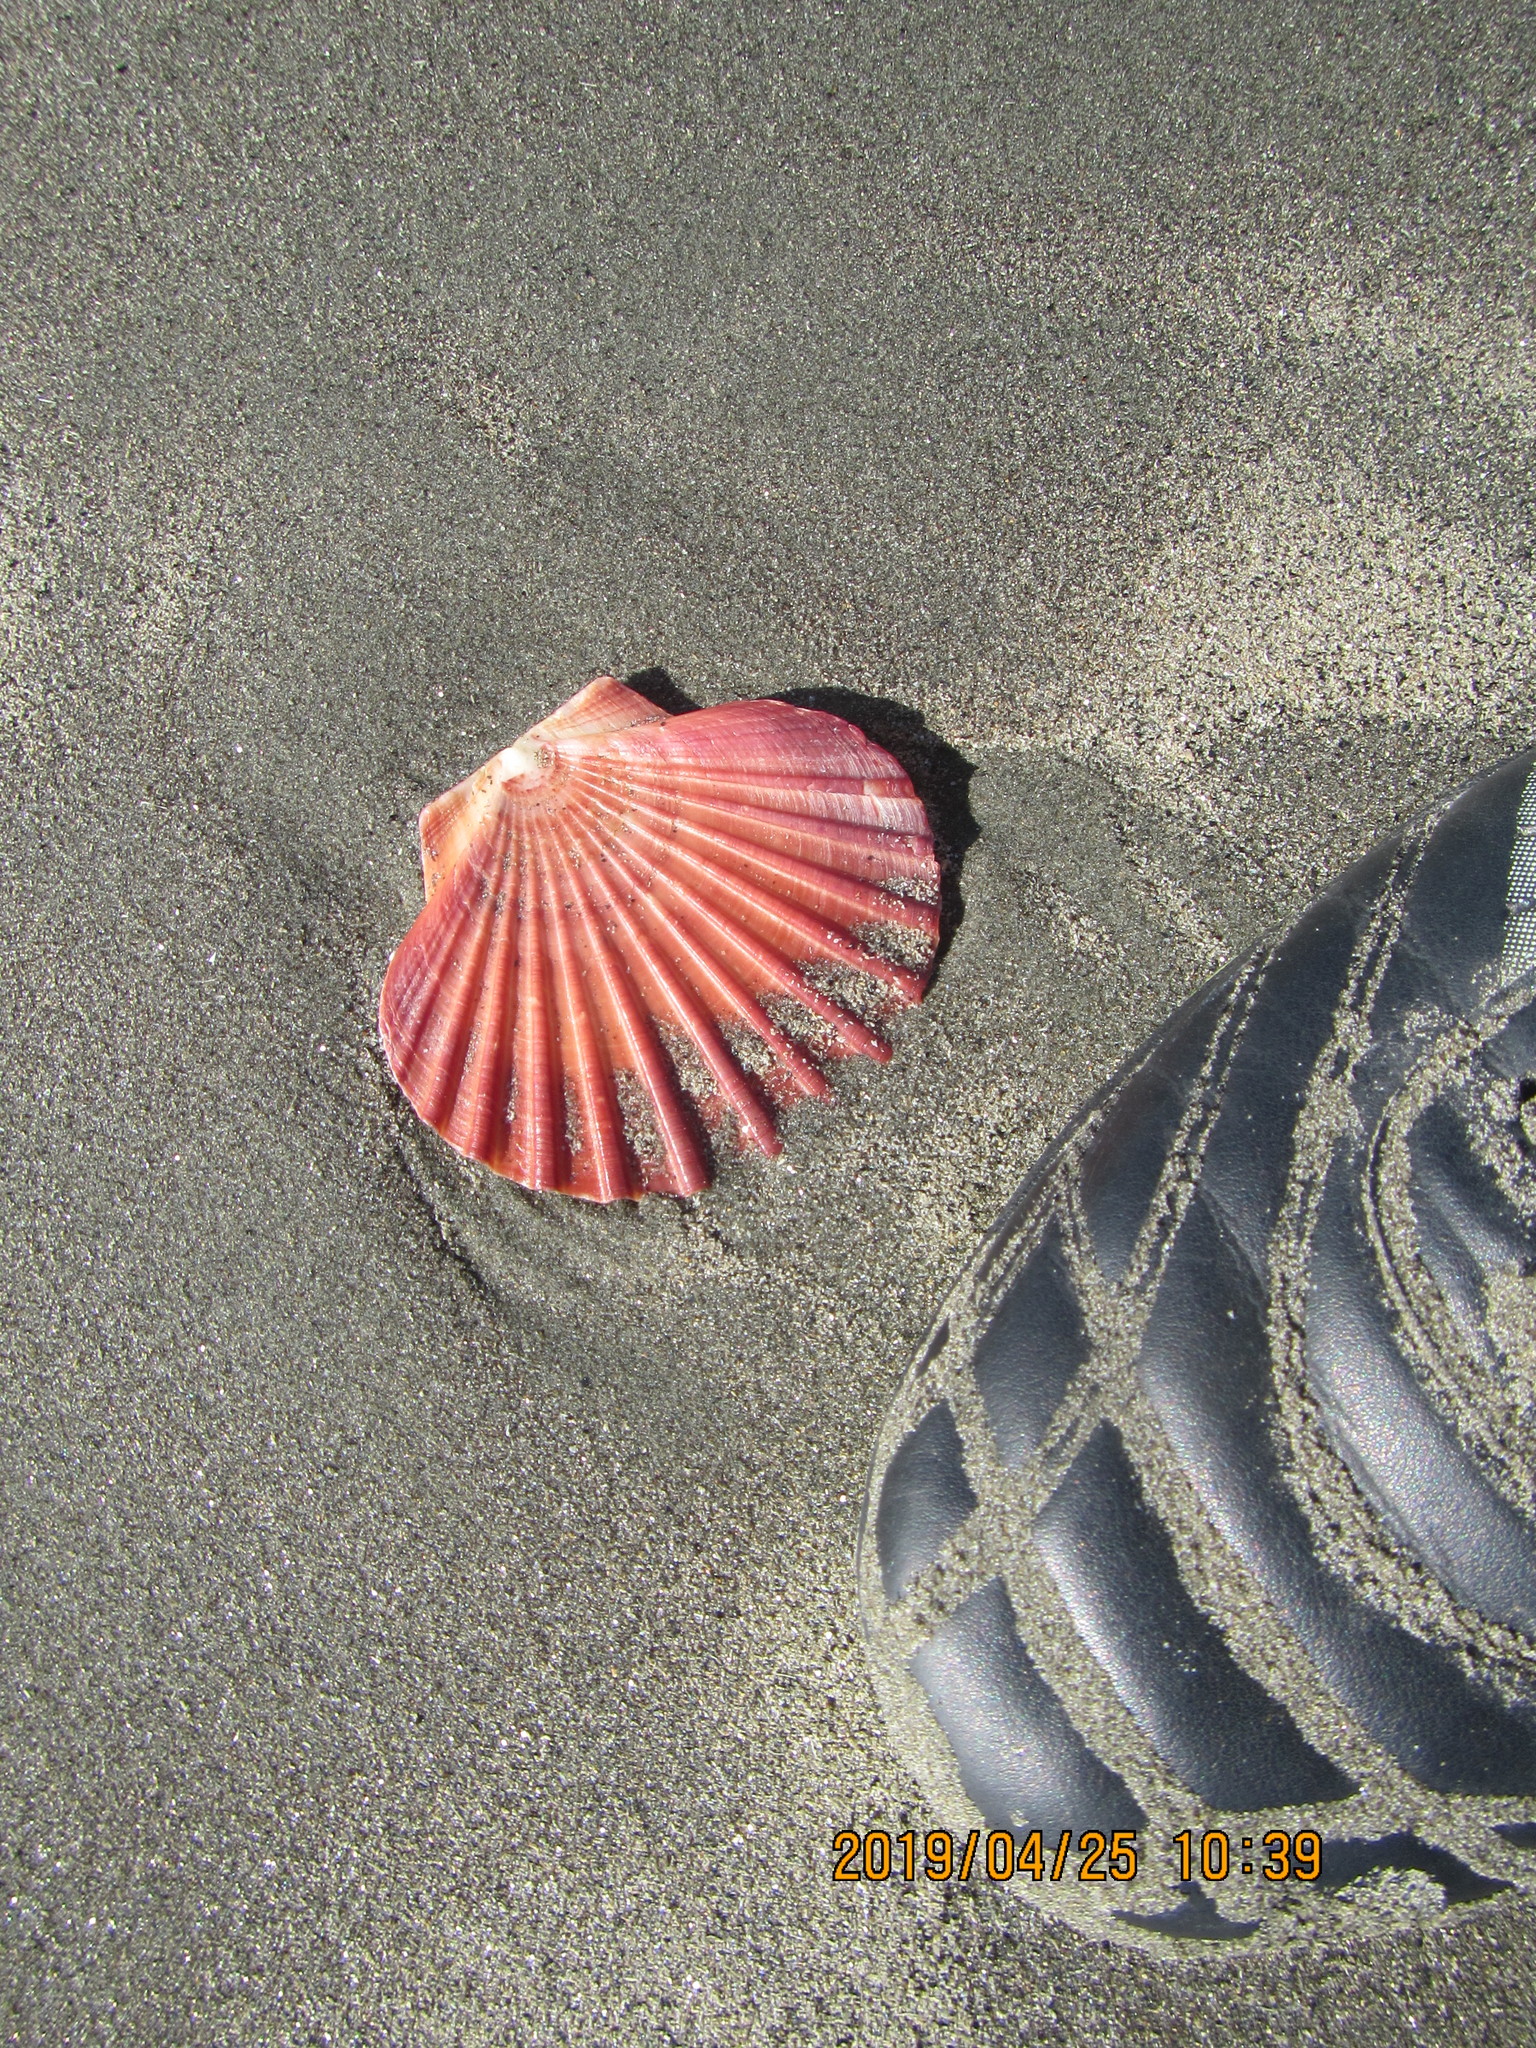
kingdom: Animalia
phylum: Mollusca
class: Bivalvia
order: Pectinida
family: Pectinidae
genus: Pecten
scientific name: Pecten novaezelandiae
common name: New zealand scallop
